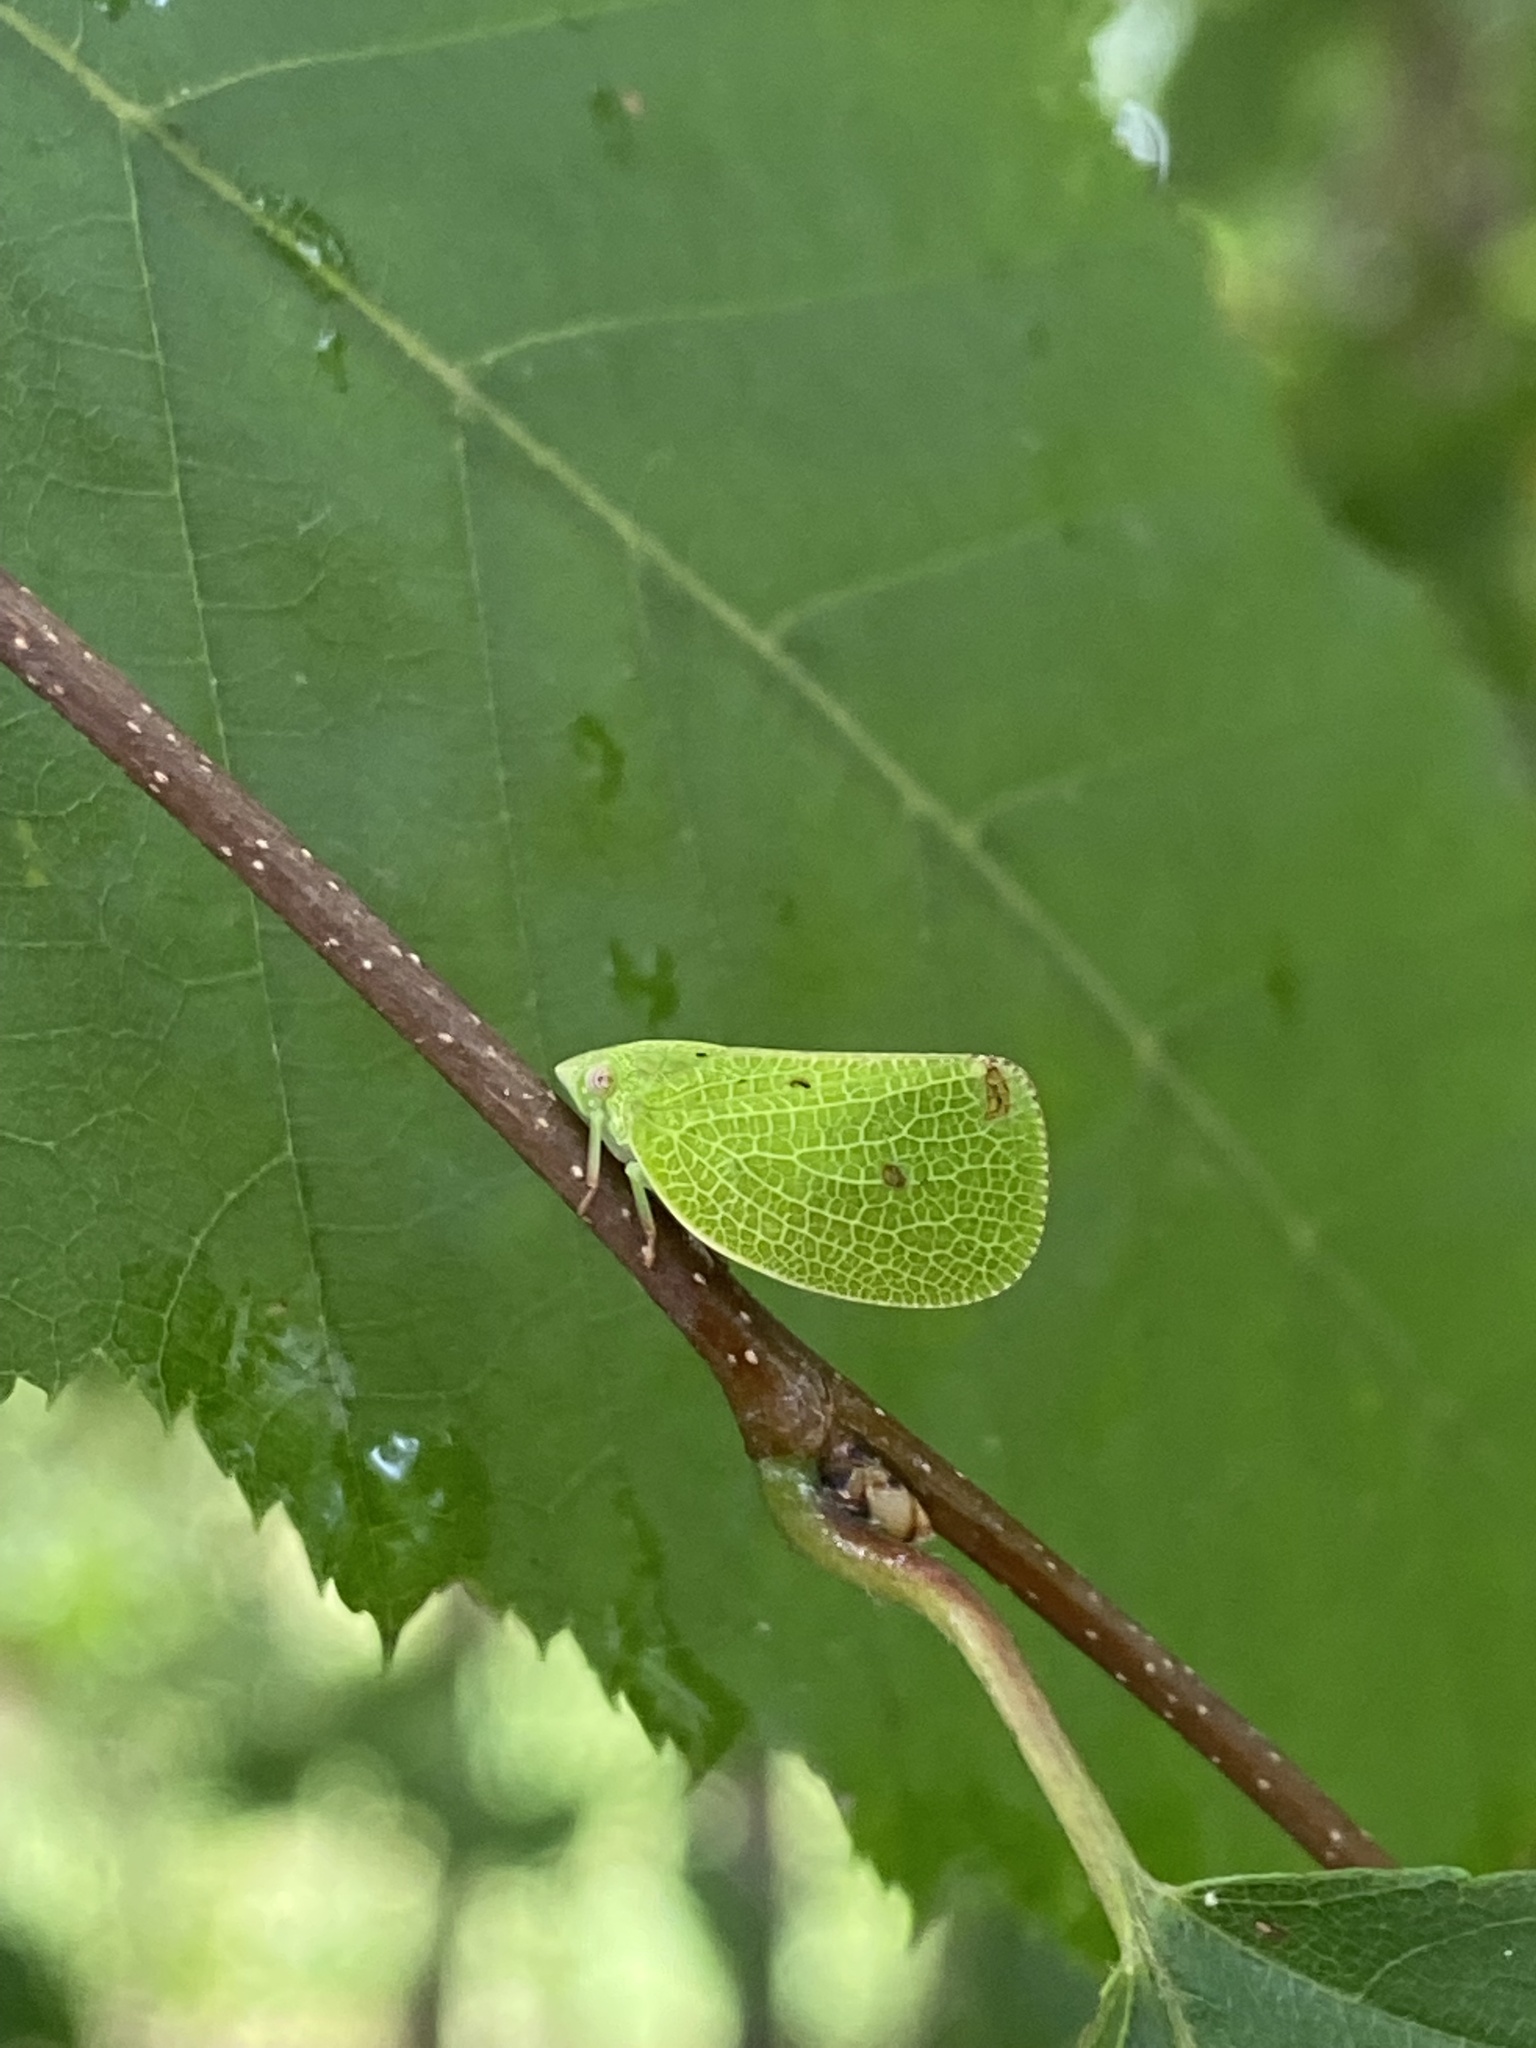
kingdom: Animalia
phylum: Arthropoda
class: Insecta
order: Hemiptera
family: Acanaloniidae
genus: Acanalonia
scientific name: Acanalonia conica
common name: Green cone-headed planthopper
